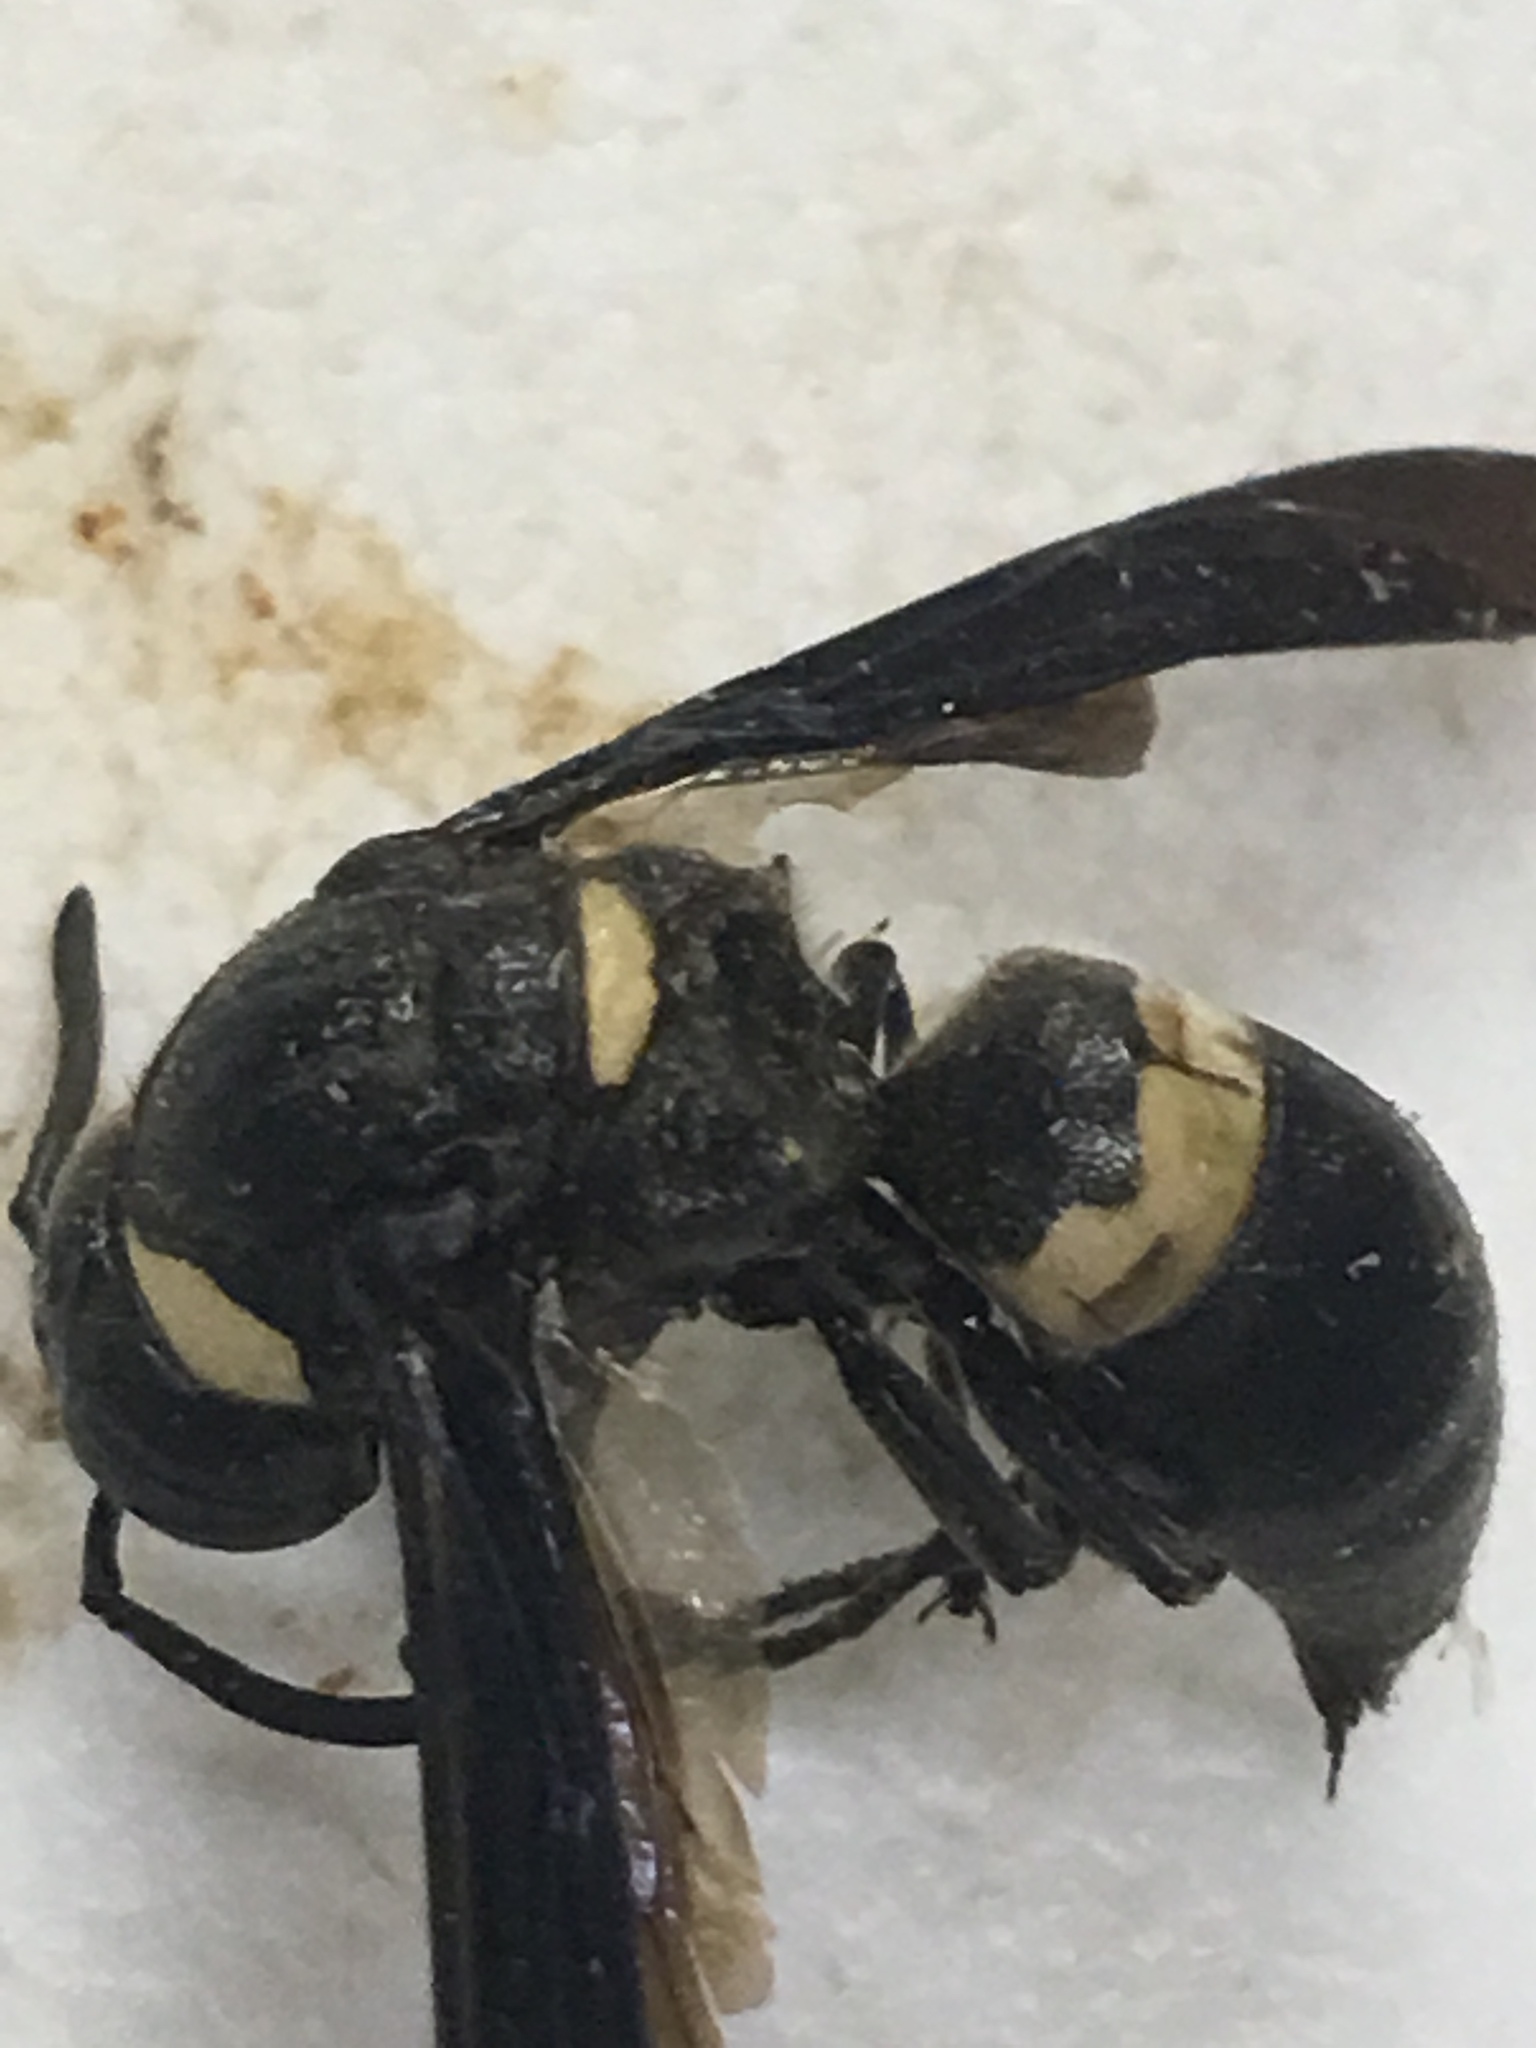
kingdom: Animalia
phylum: Arthropoda
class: Insecta
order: Hymenoptera
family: Eumenidae
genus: Monobia
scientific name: Monobia quadridens
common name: Four-toothed mason wasp
